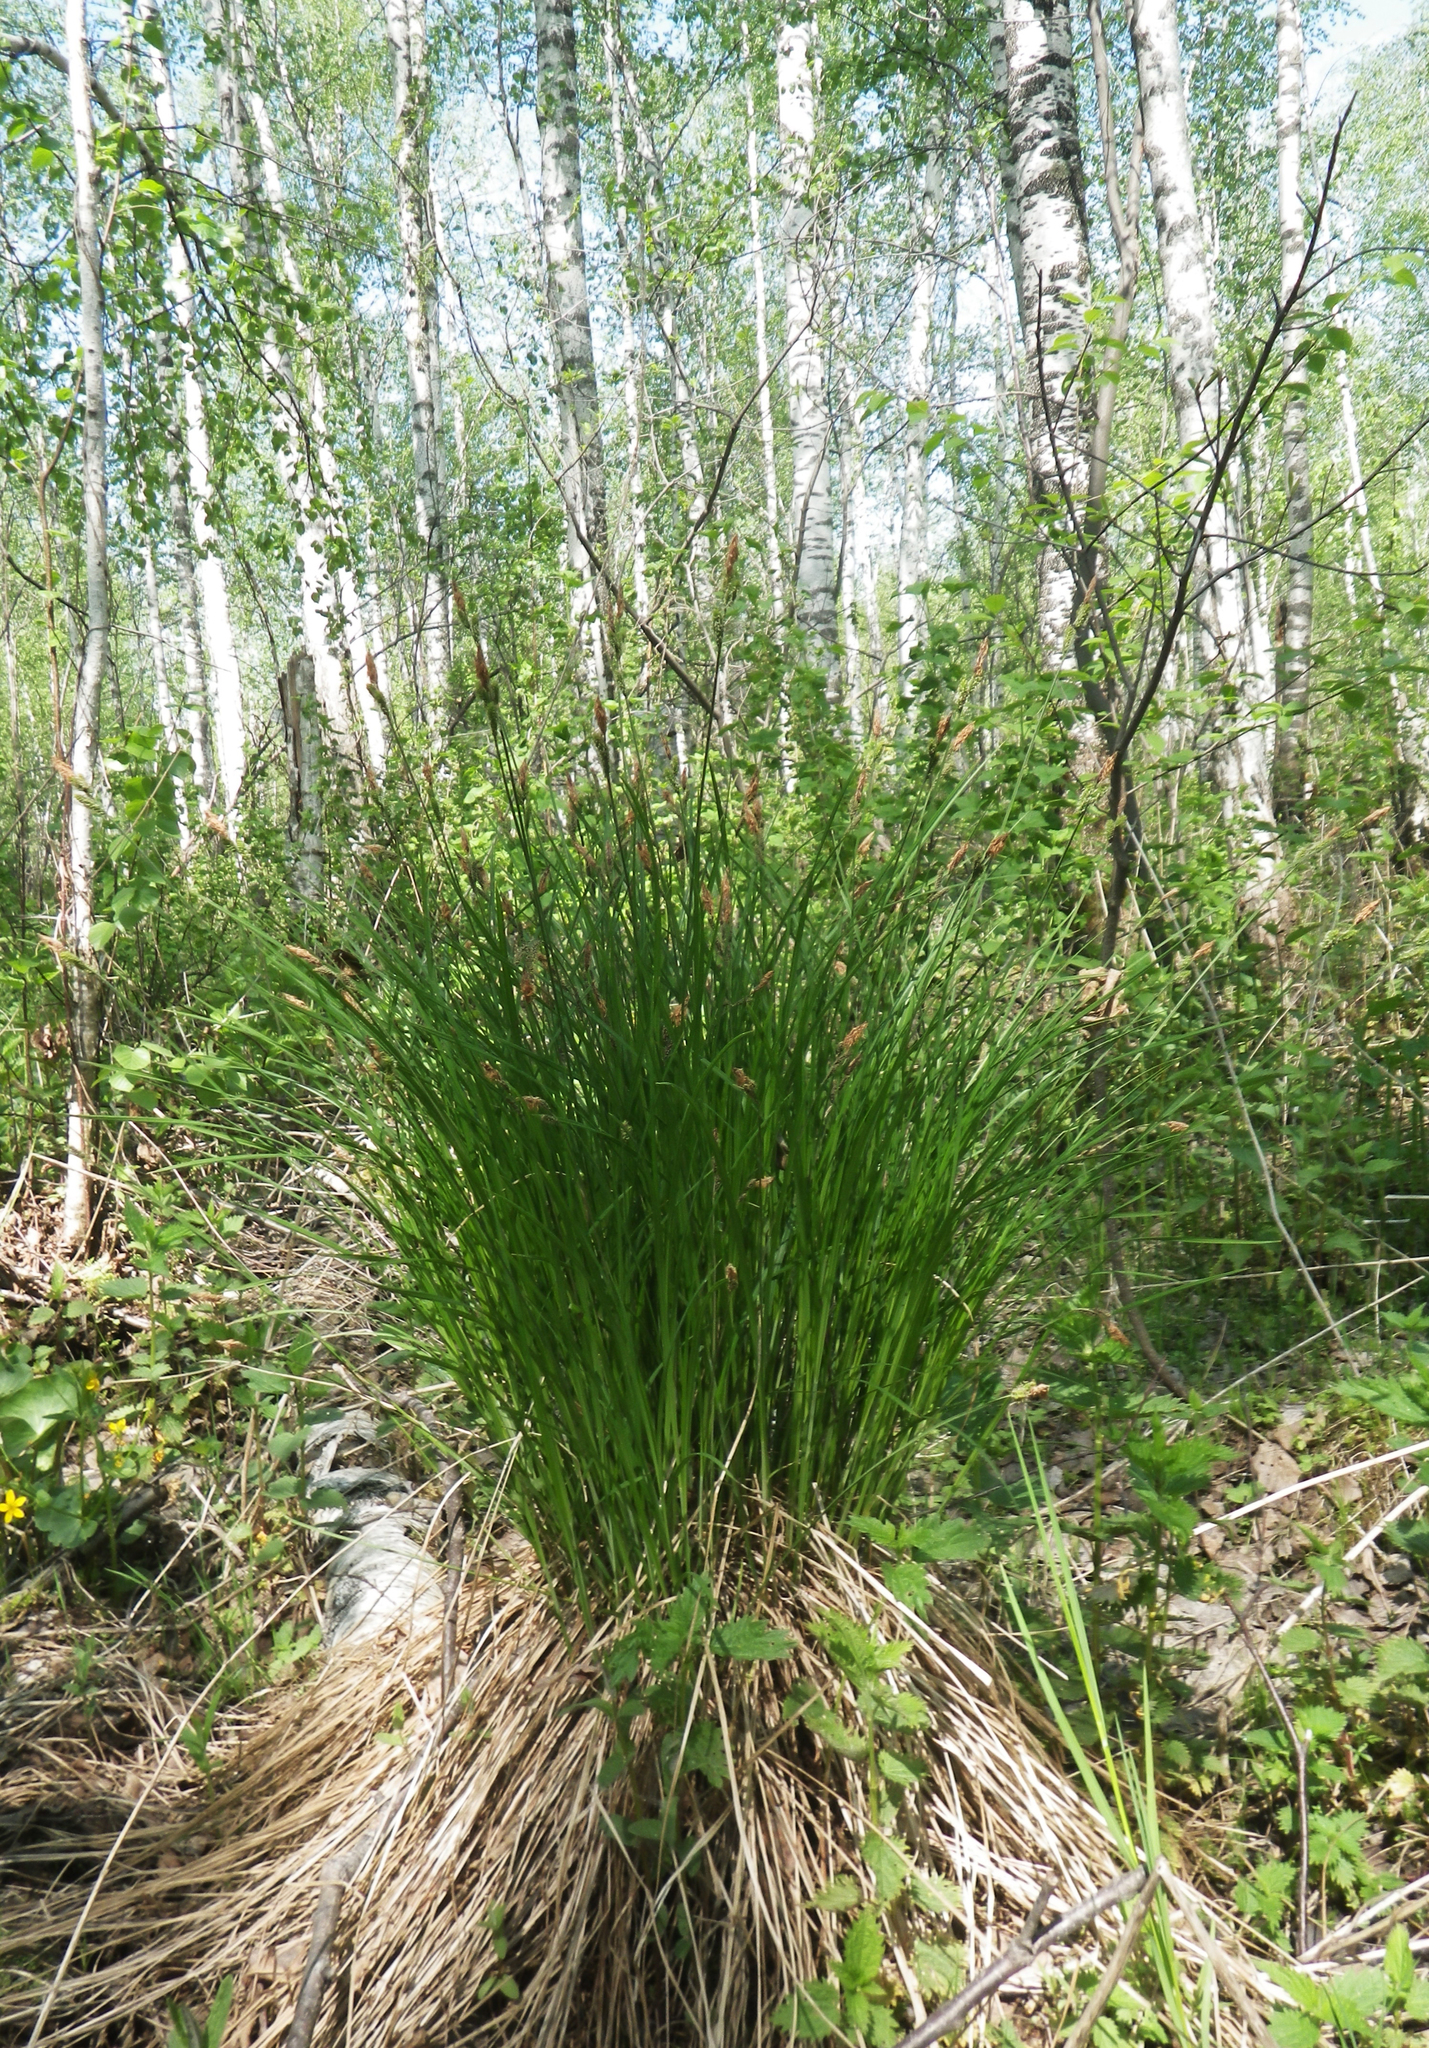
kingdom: Plantae
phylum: Tracheophyta
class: Liliopsida
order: Poales
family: Cyperaceae
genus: Carex
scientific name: Carex cespitosa
